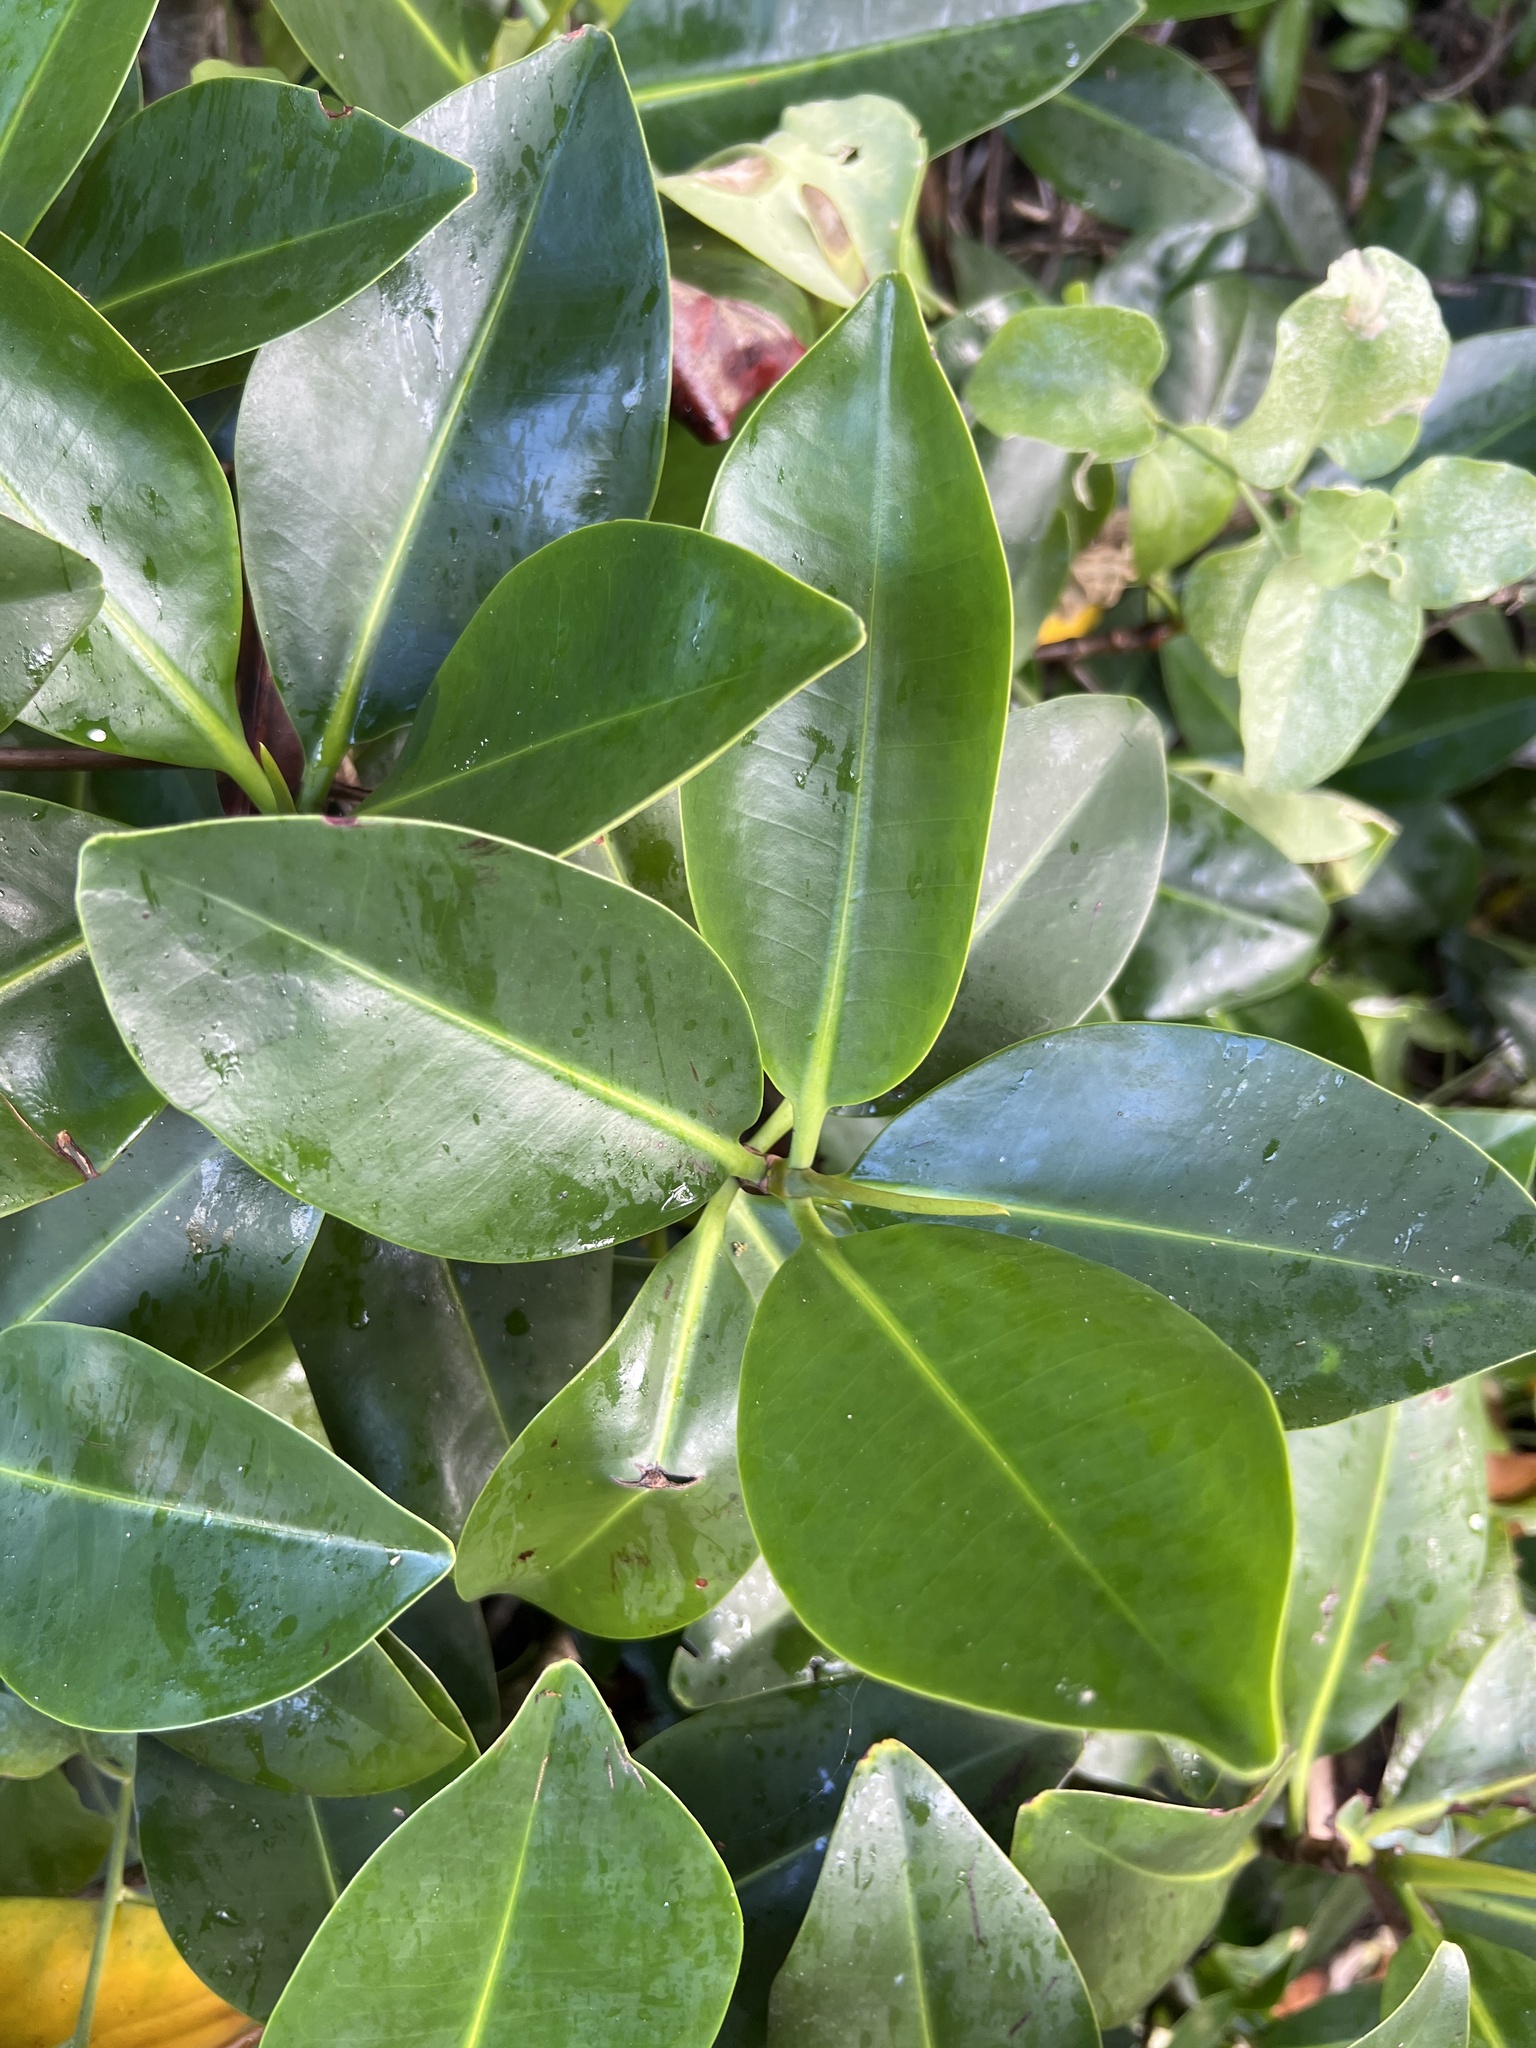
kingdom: Plantae
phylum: Tracheophyta
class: Magnoliopsida
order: Malpighiales
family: Rhizophoraceae
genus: Rhizophora
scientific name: Rhizophora mangle
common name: Red mangrove
